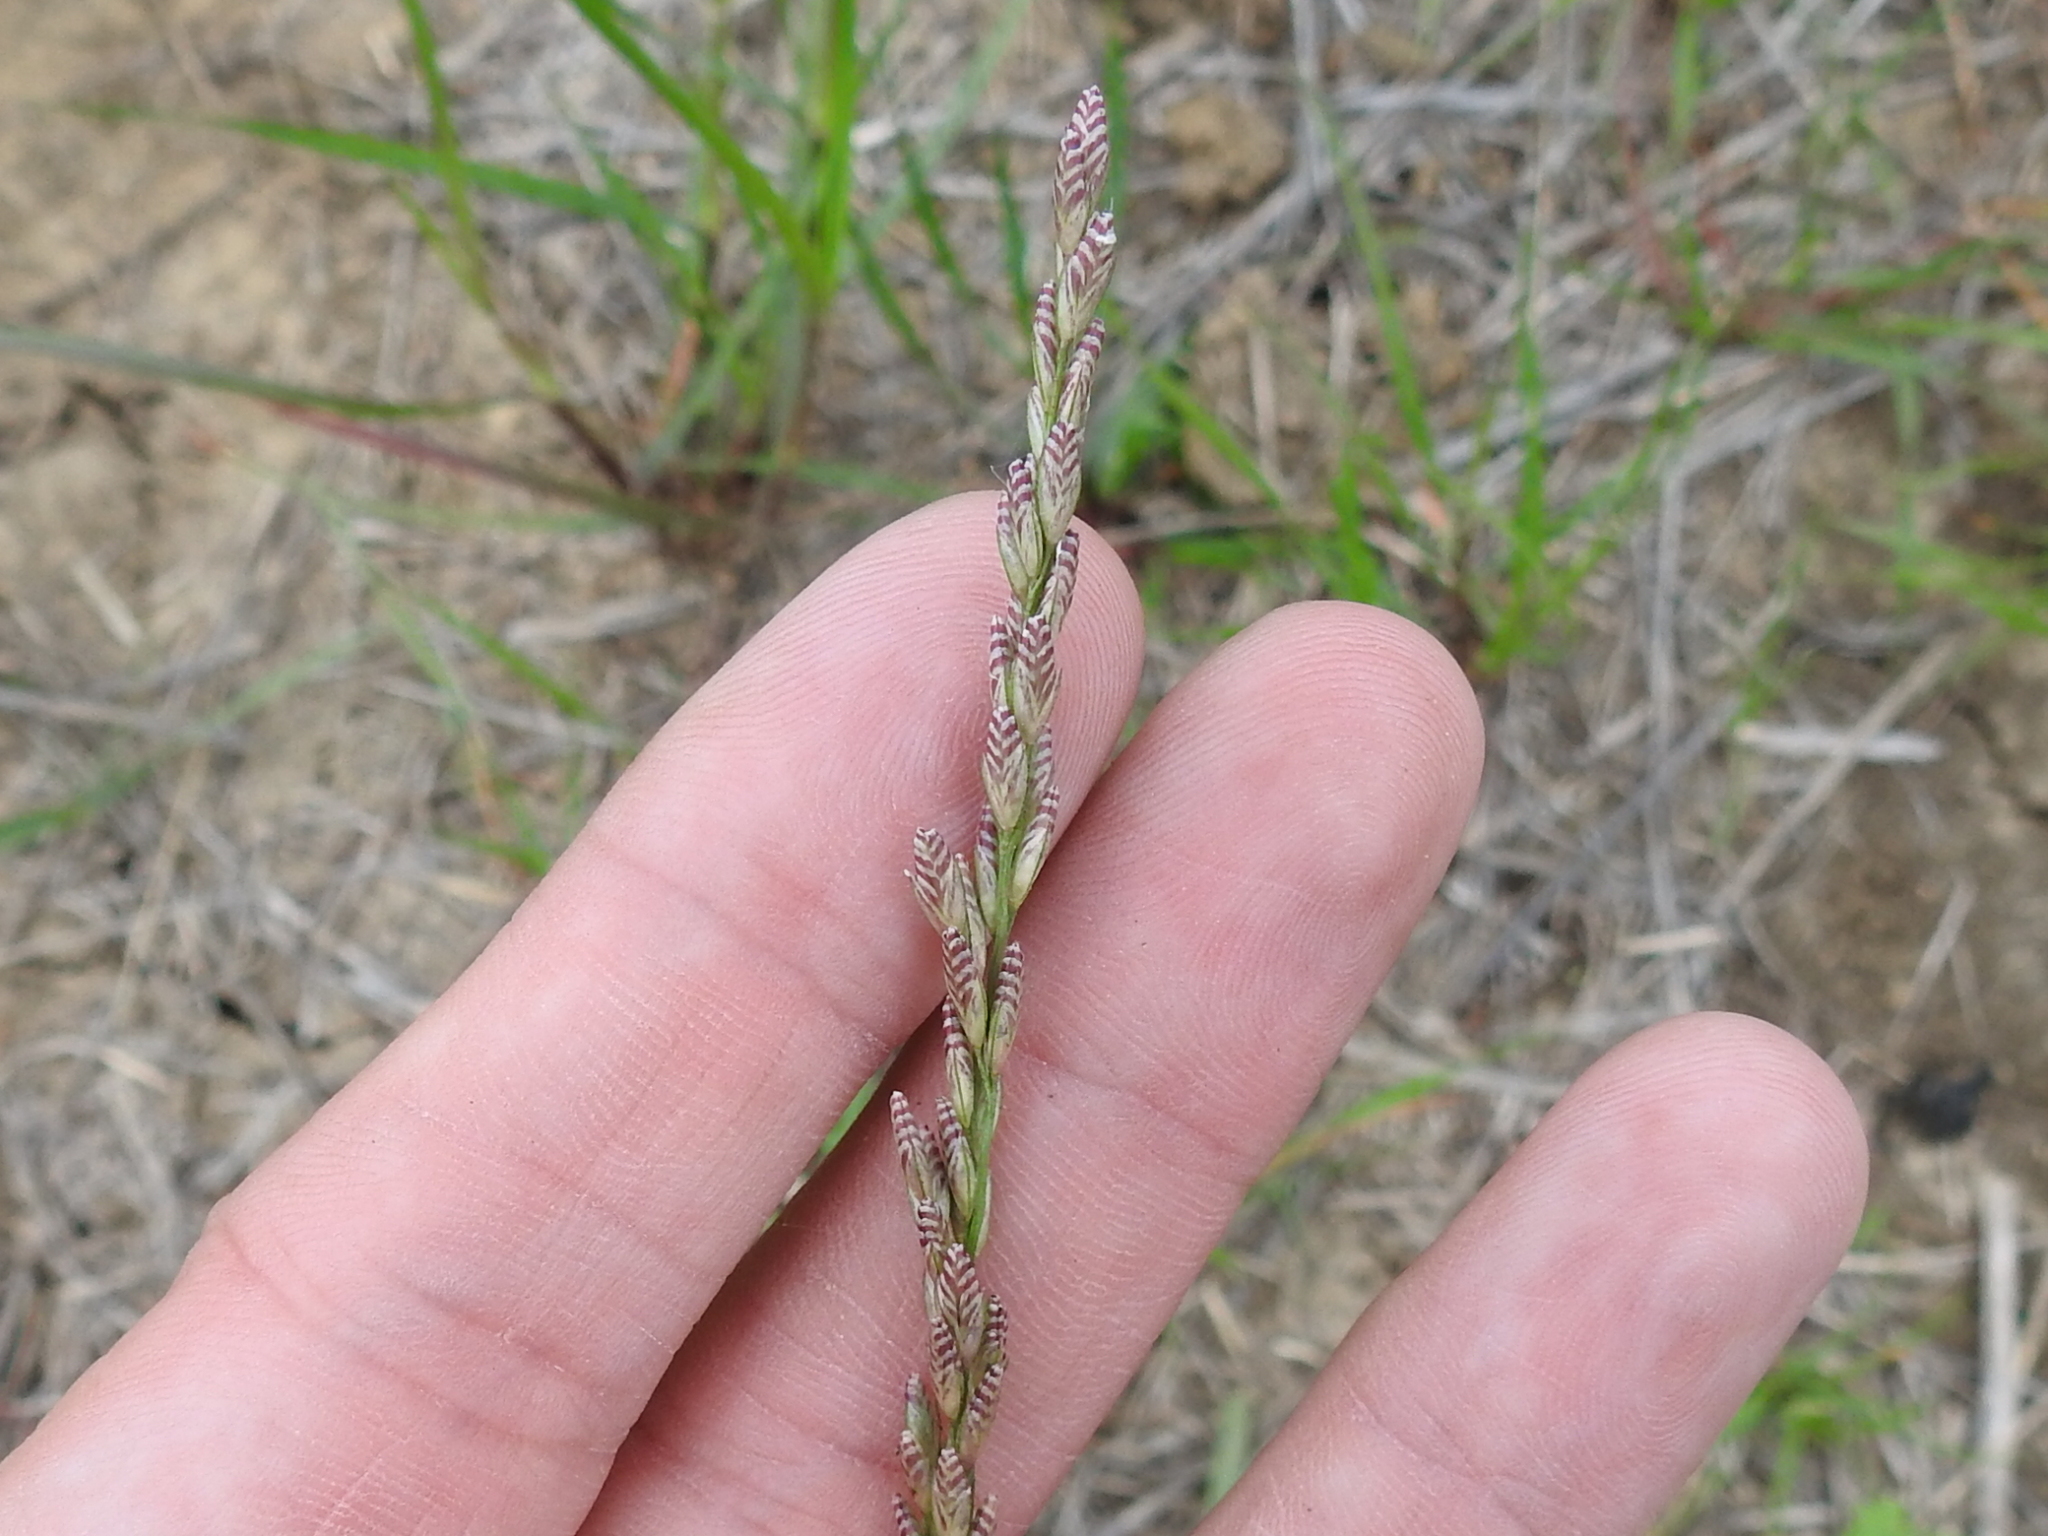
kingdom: Plantae
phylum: Tracheophyta
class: Liliopsida
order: Poales
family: Poaceae
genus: Tridens
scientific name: Tridens albescens
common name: White tridens
